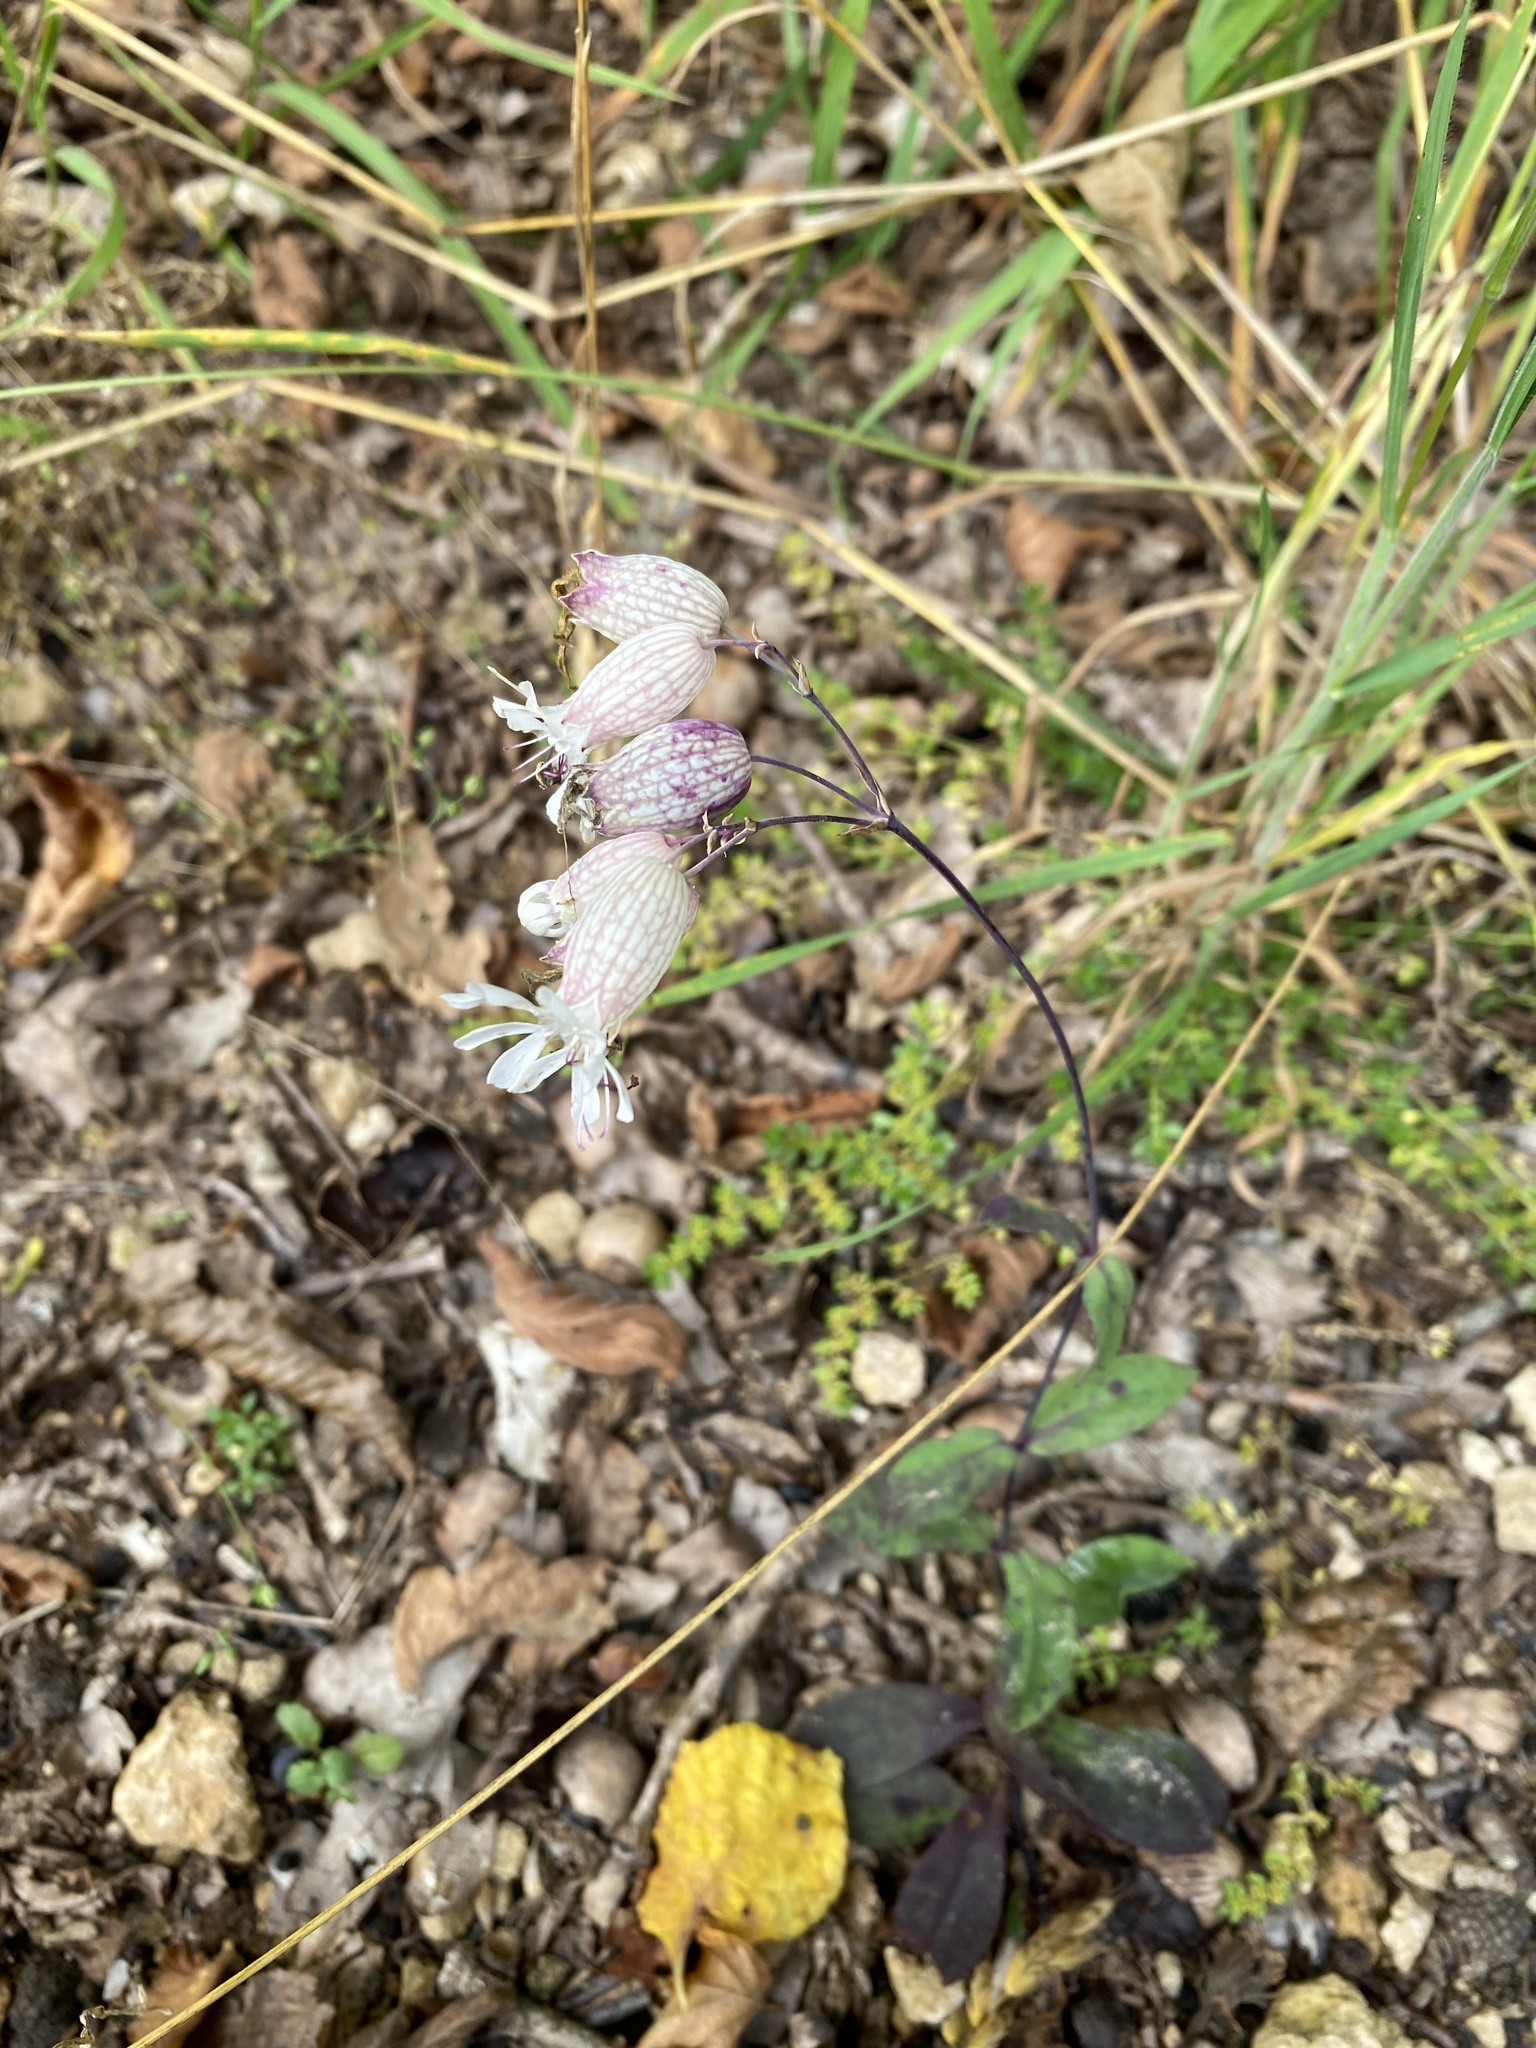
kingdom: Plantae
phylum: Tracheophyta
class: Magnoliopsida
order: Caryophyllales
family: Caryophyllaceae
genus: Silene
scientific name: Silene vulgaris
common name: Bladder campion
